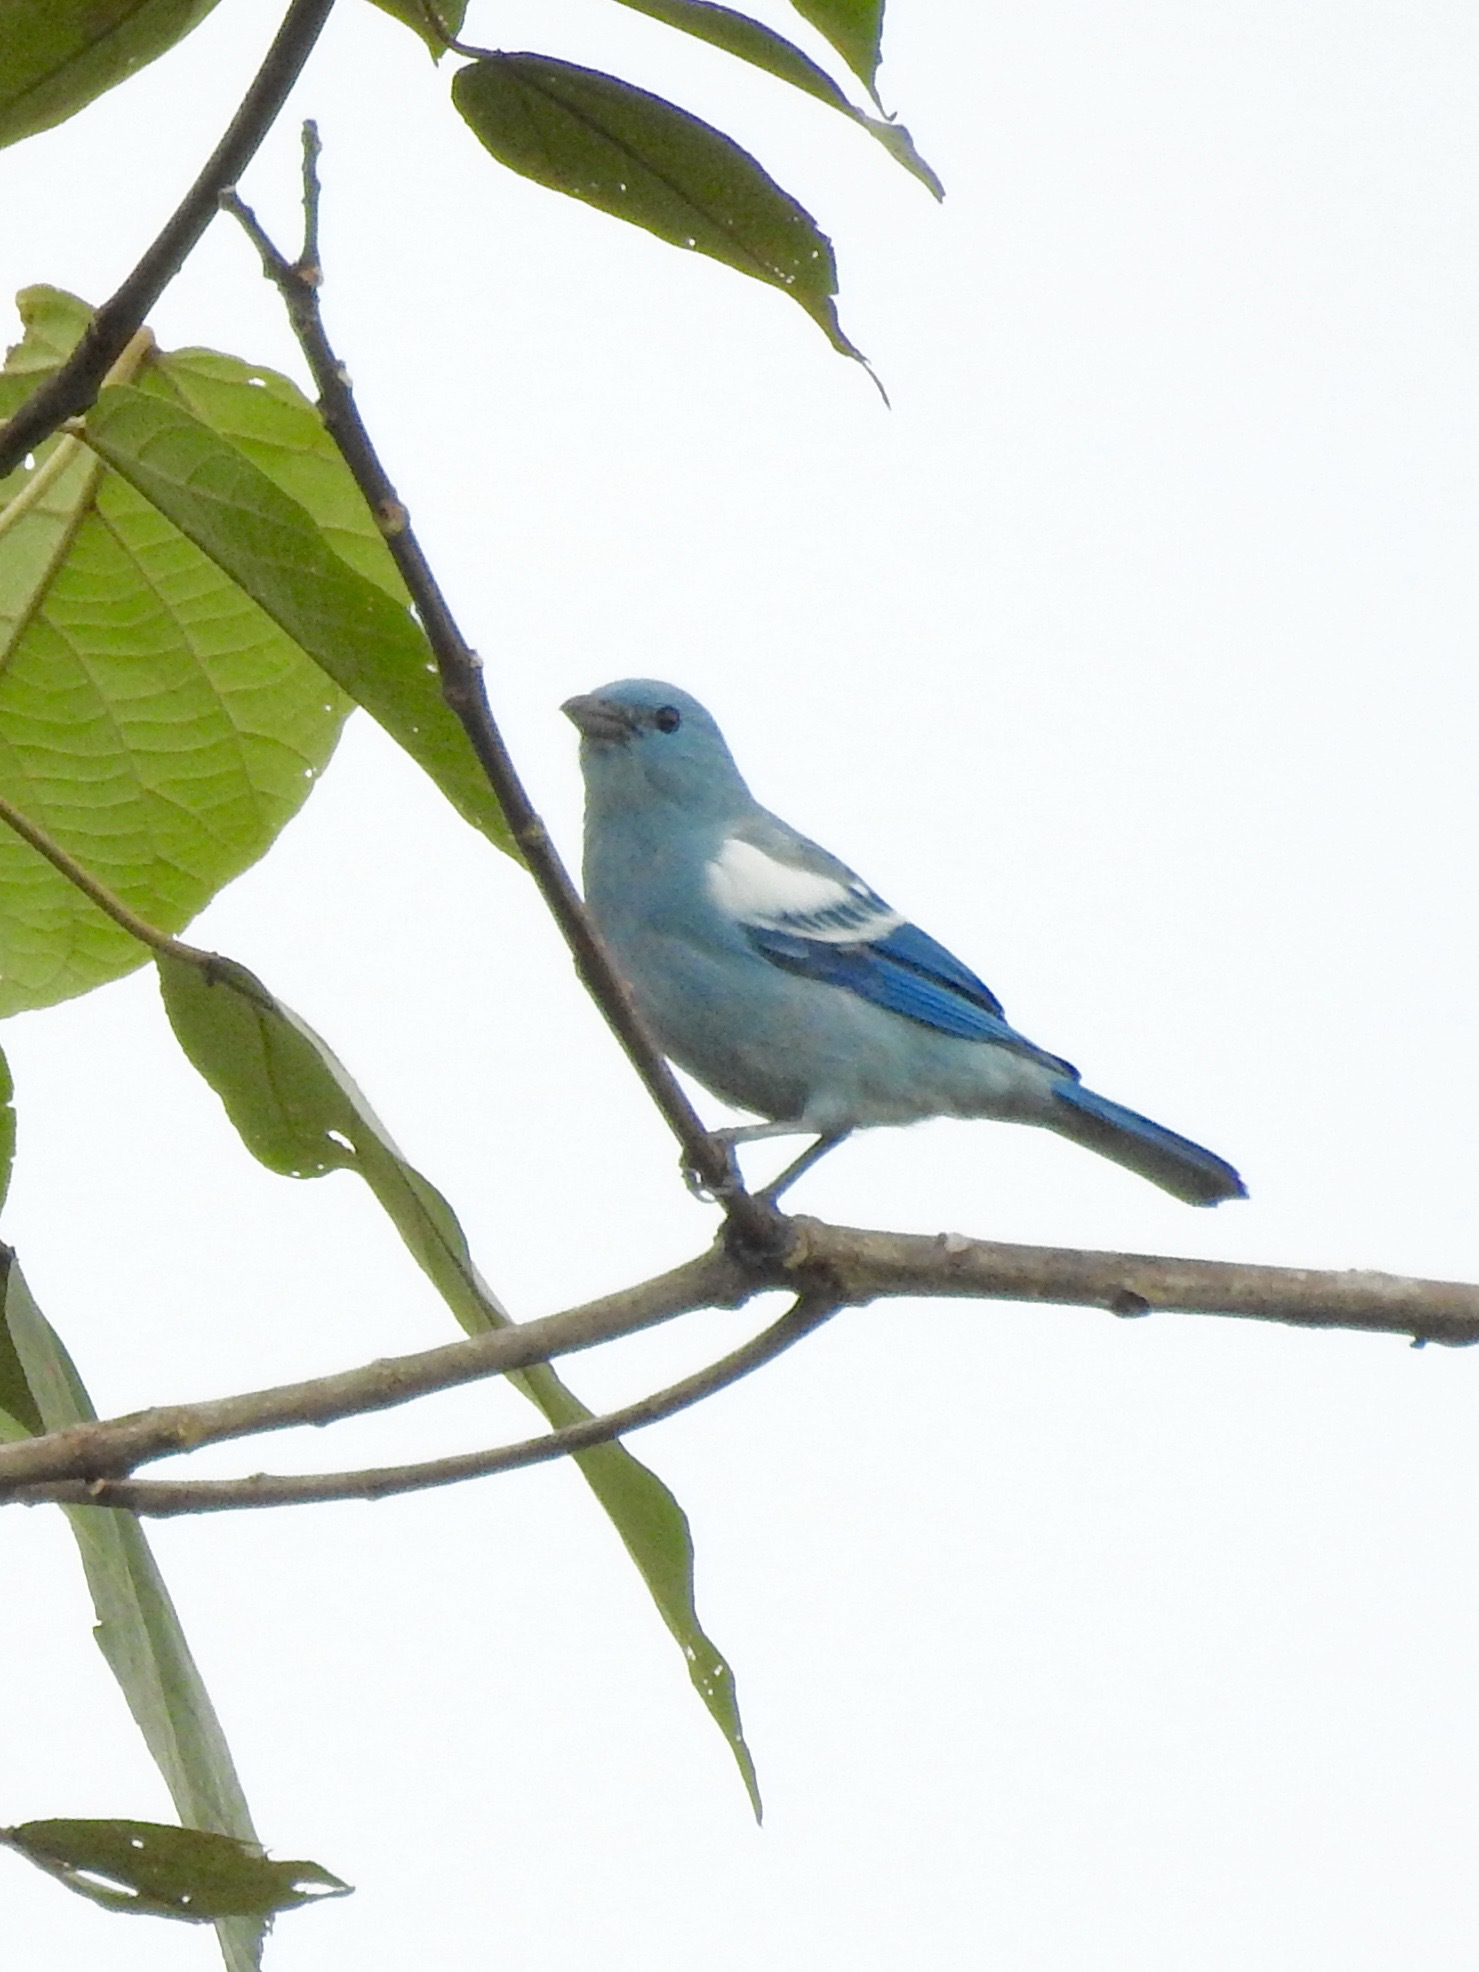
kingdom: Animalia
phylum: Chordata
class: Aves
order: Passeriformes
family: Thraupidae
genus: Thraupis
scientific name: Thraupis episcopus
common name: Blue-grey tanager
